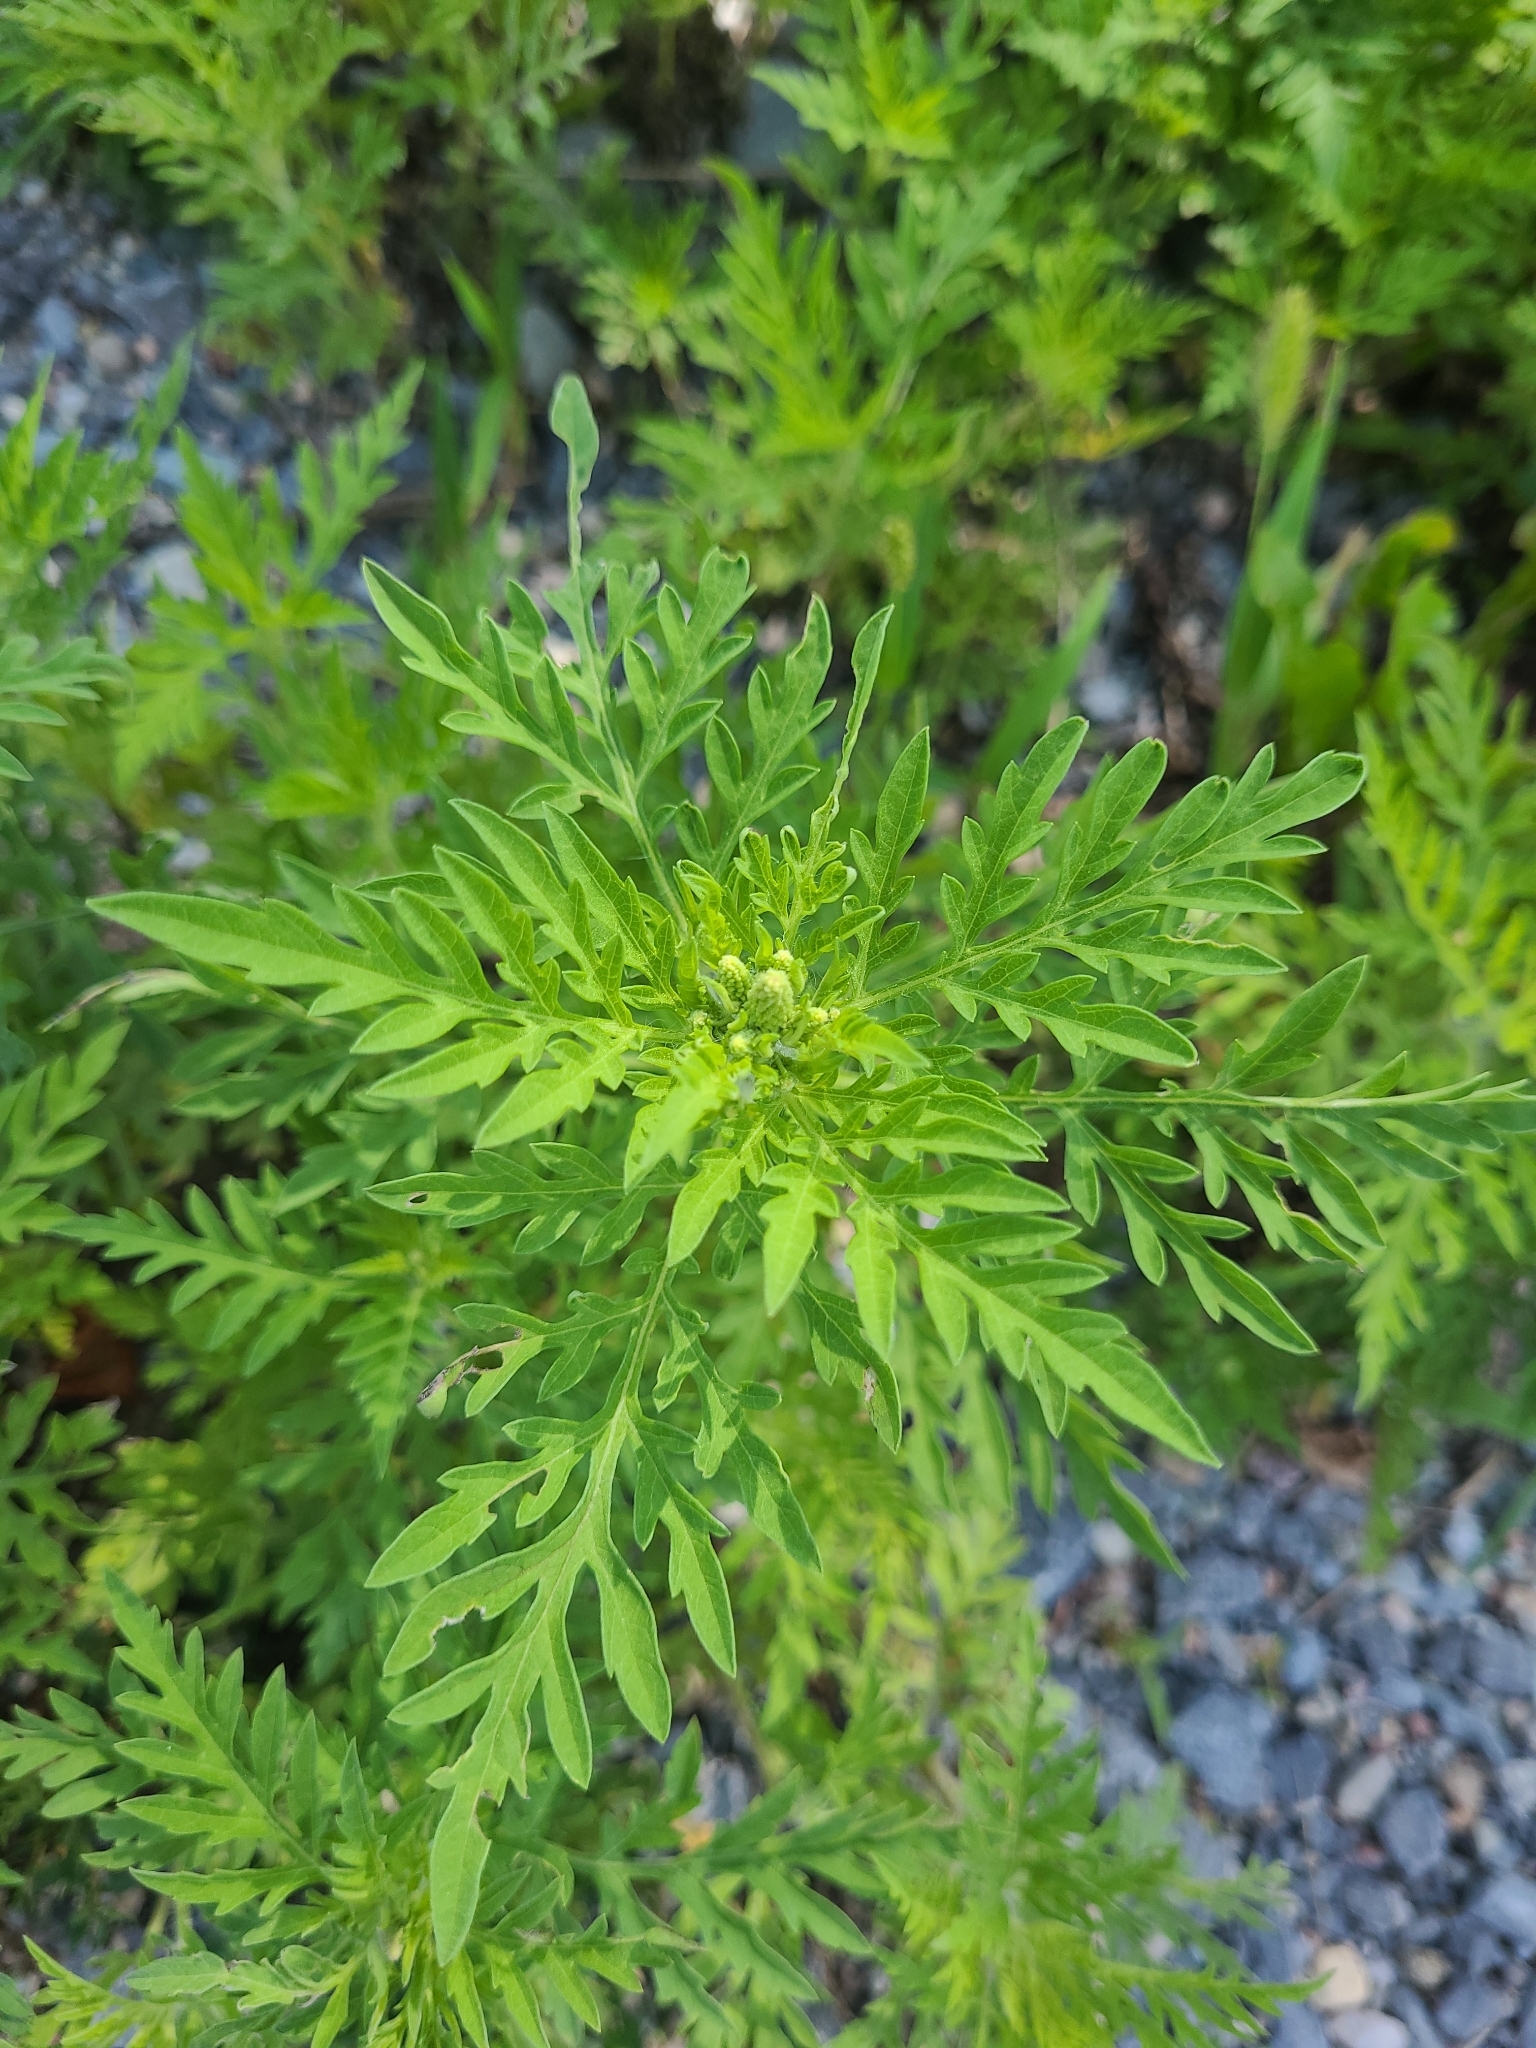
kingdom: Plantae
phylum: Tracheophyta
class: Magnoliopsida
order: Asterales
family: Asteraceae
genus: Ambrosia
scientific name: Ambrosia artemisiifolia
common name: Annual ragweed
